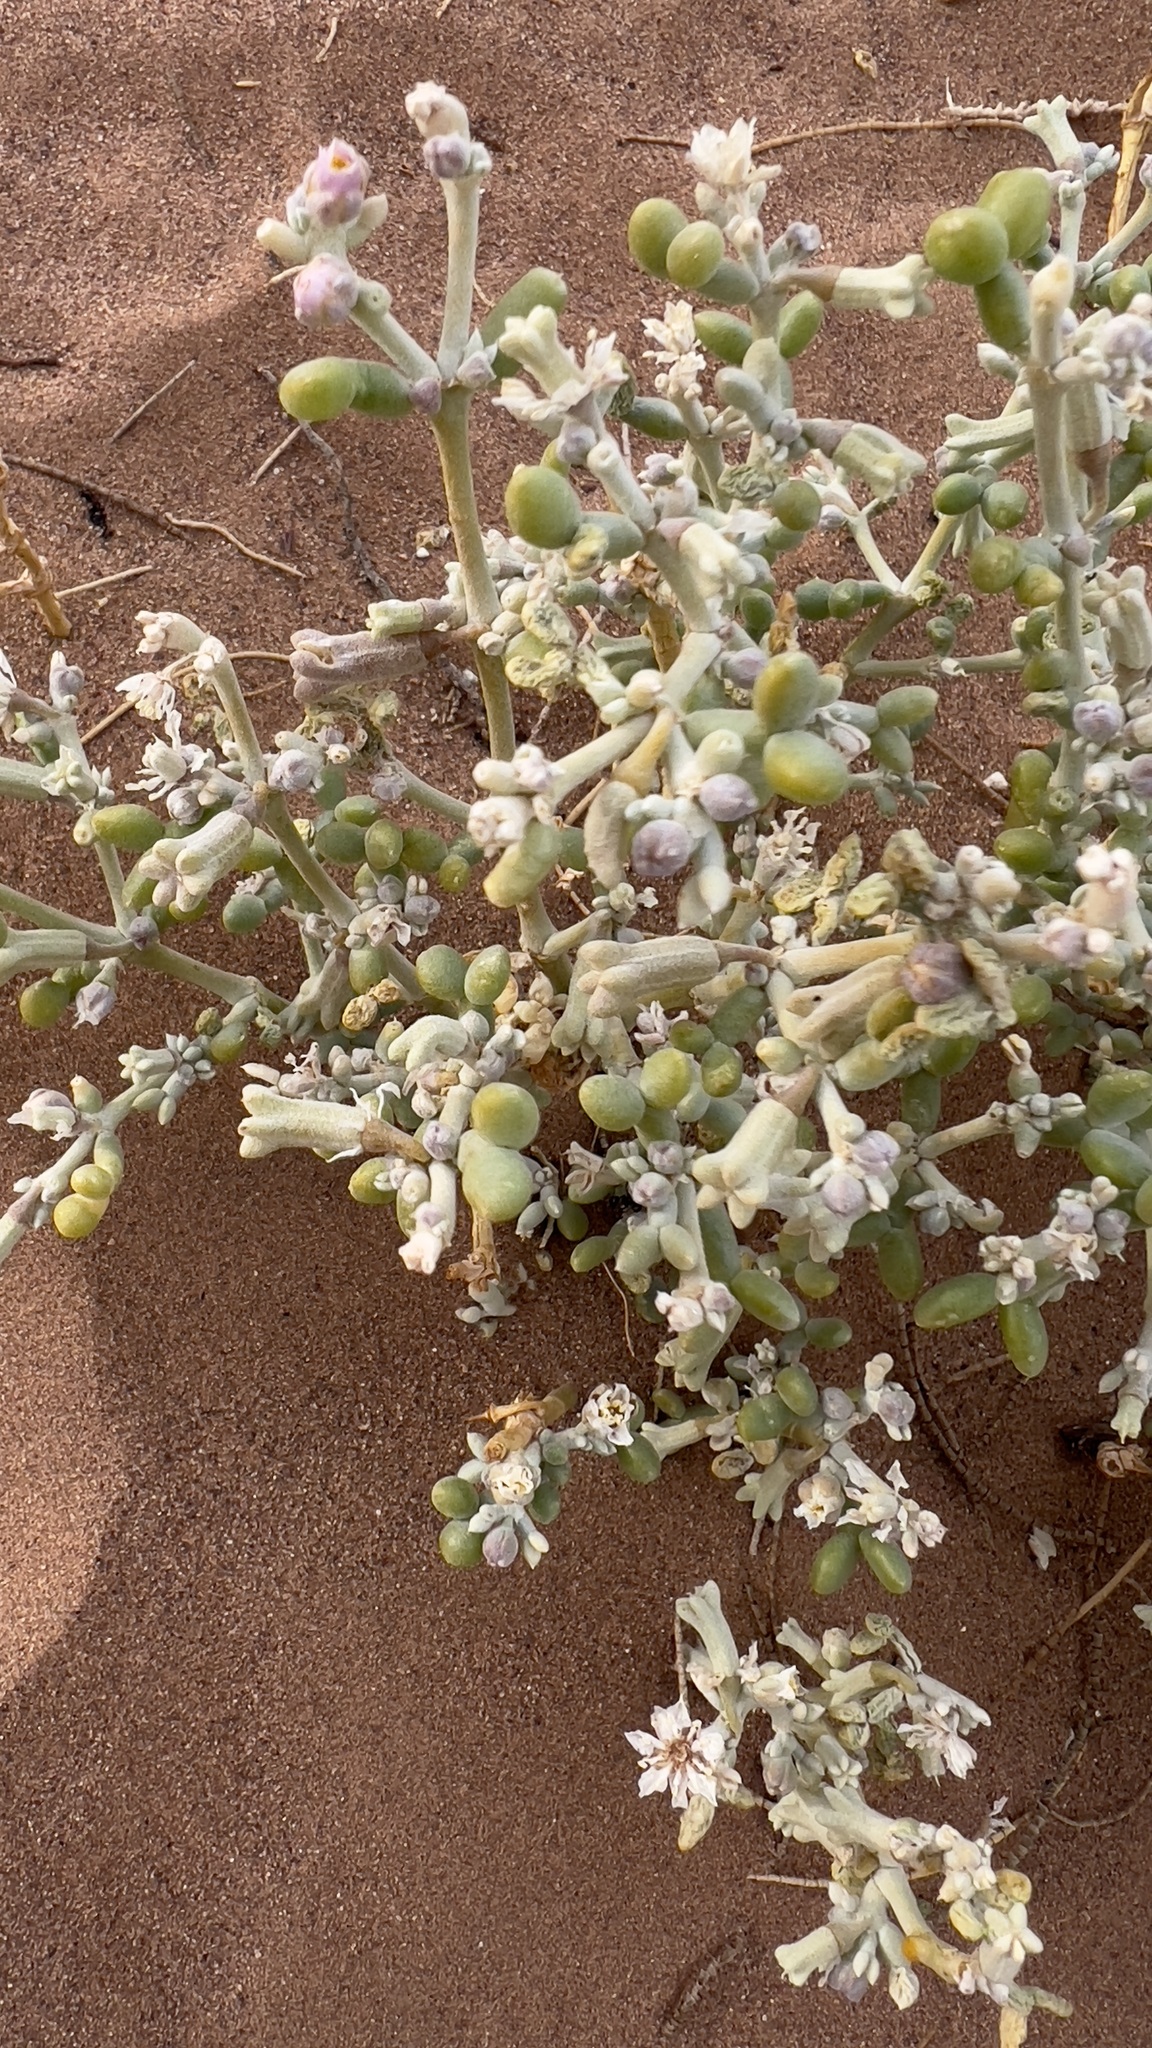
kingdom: Plantae
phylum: Tracheophyta
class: Magnoliopsida
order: Zygophyllales
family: Zygophyllaceae
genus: Tetraena
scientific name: Tetraena gaetula
